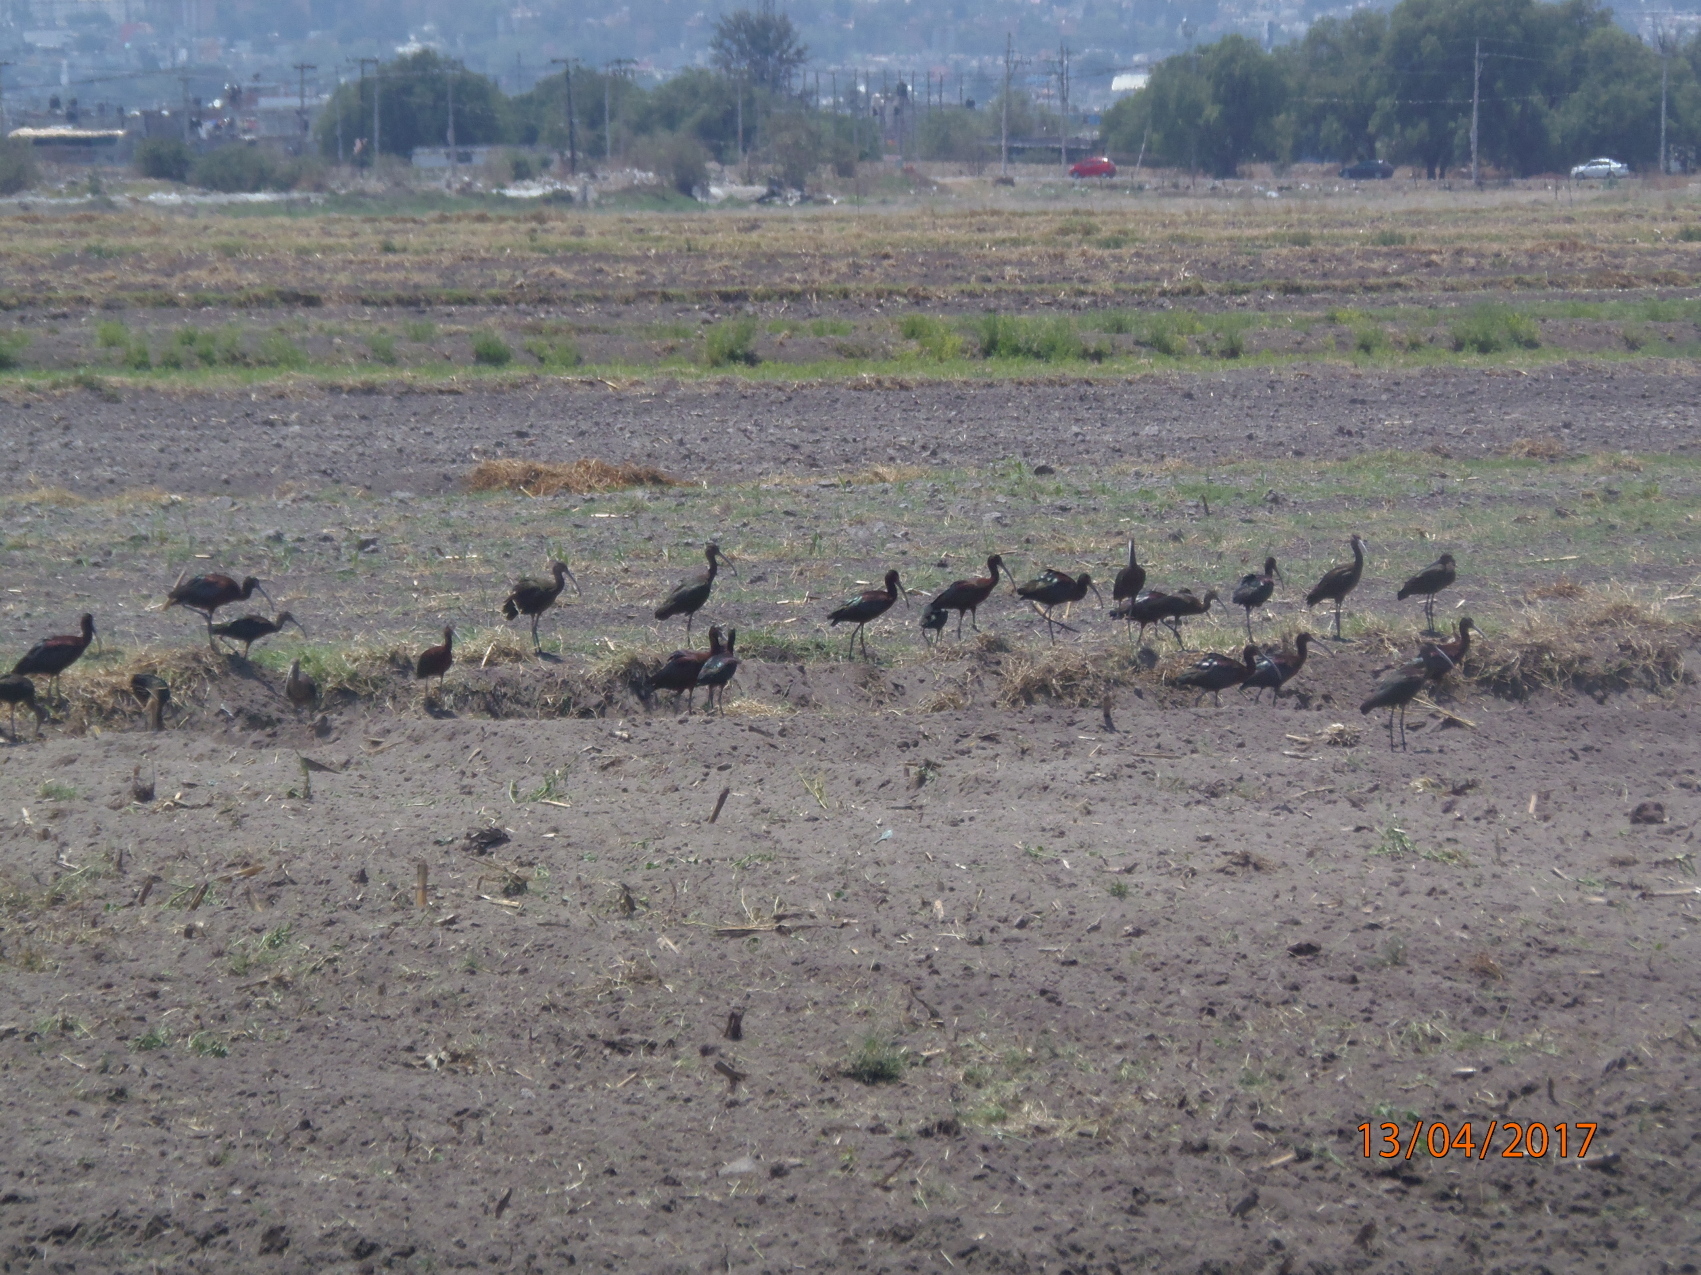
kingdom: Animalia
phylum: Chordata
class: Aves
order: Pelecaniformes
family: Threskiornithidae
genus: Plegadis
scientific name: Plegadis chihi
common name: White-faced ibis
